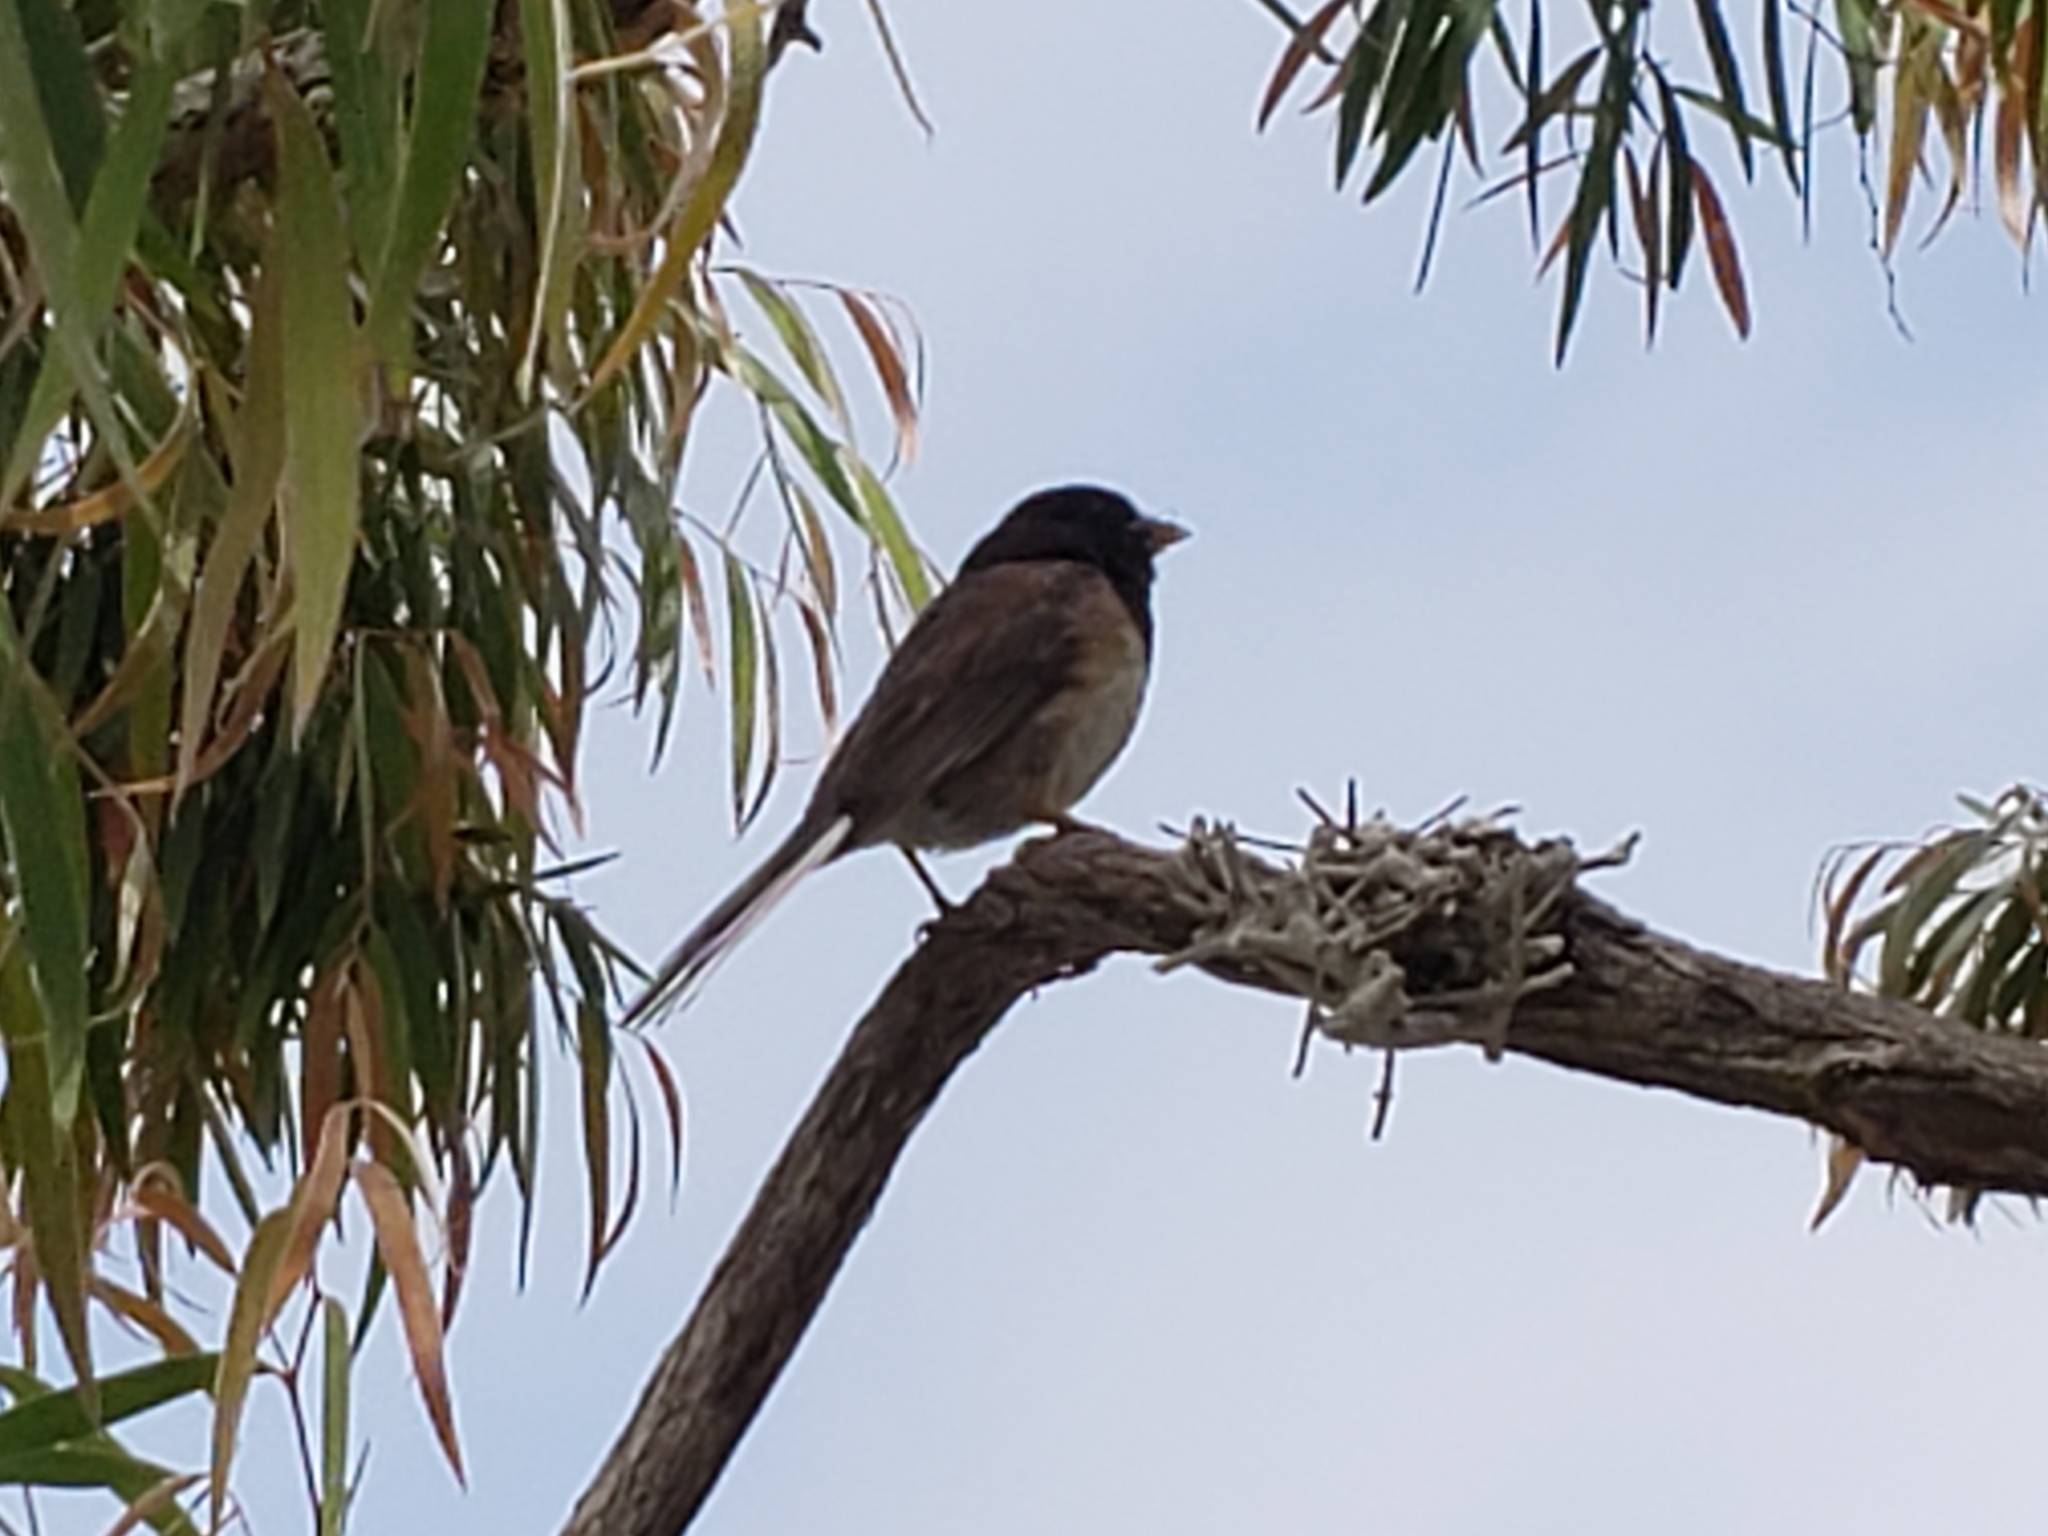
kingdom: Animalia
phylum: Chordata
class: Aves
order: Passeriformes
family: Passerellidae
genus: Junco
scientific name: Junco hyemalis
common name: Dark-eyed junco
